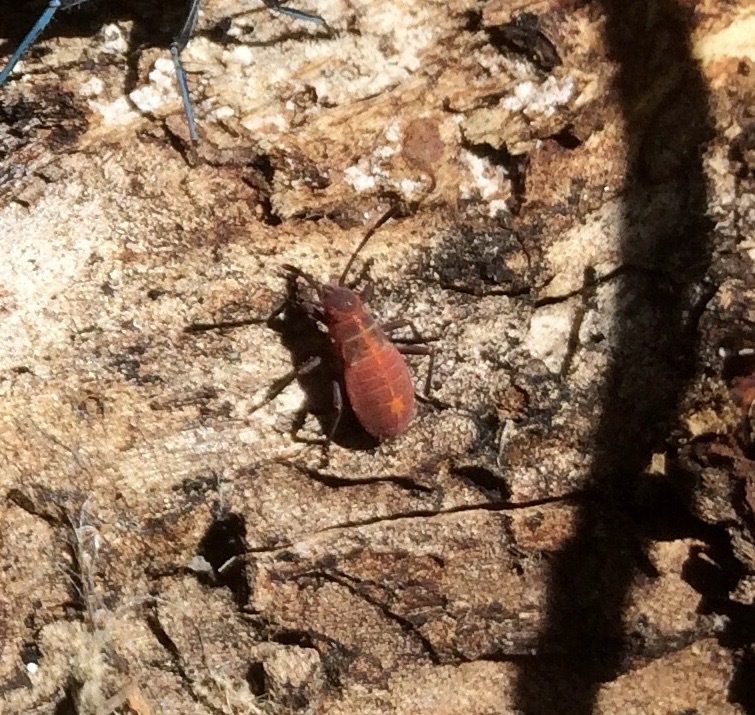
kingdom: Animalia
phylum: Arthropoda
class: Insecta
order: Hemiptera
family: Rhopalidae
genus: Boisea
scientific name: Boisea rubrolineata
